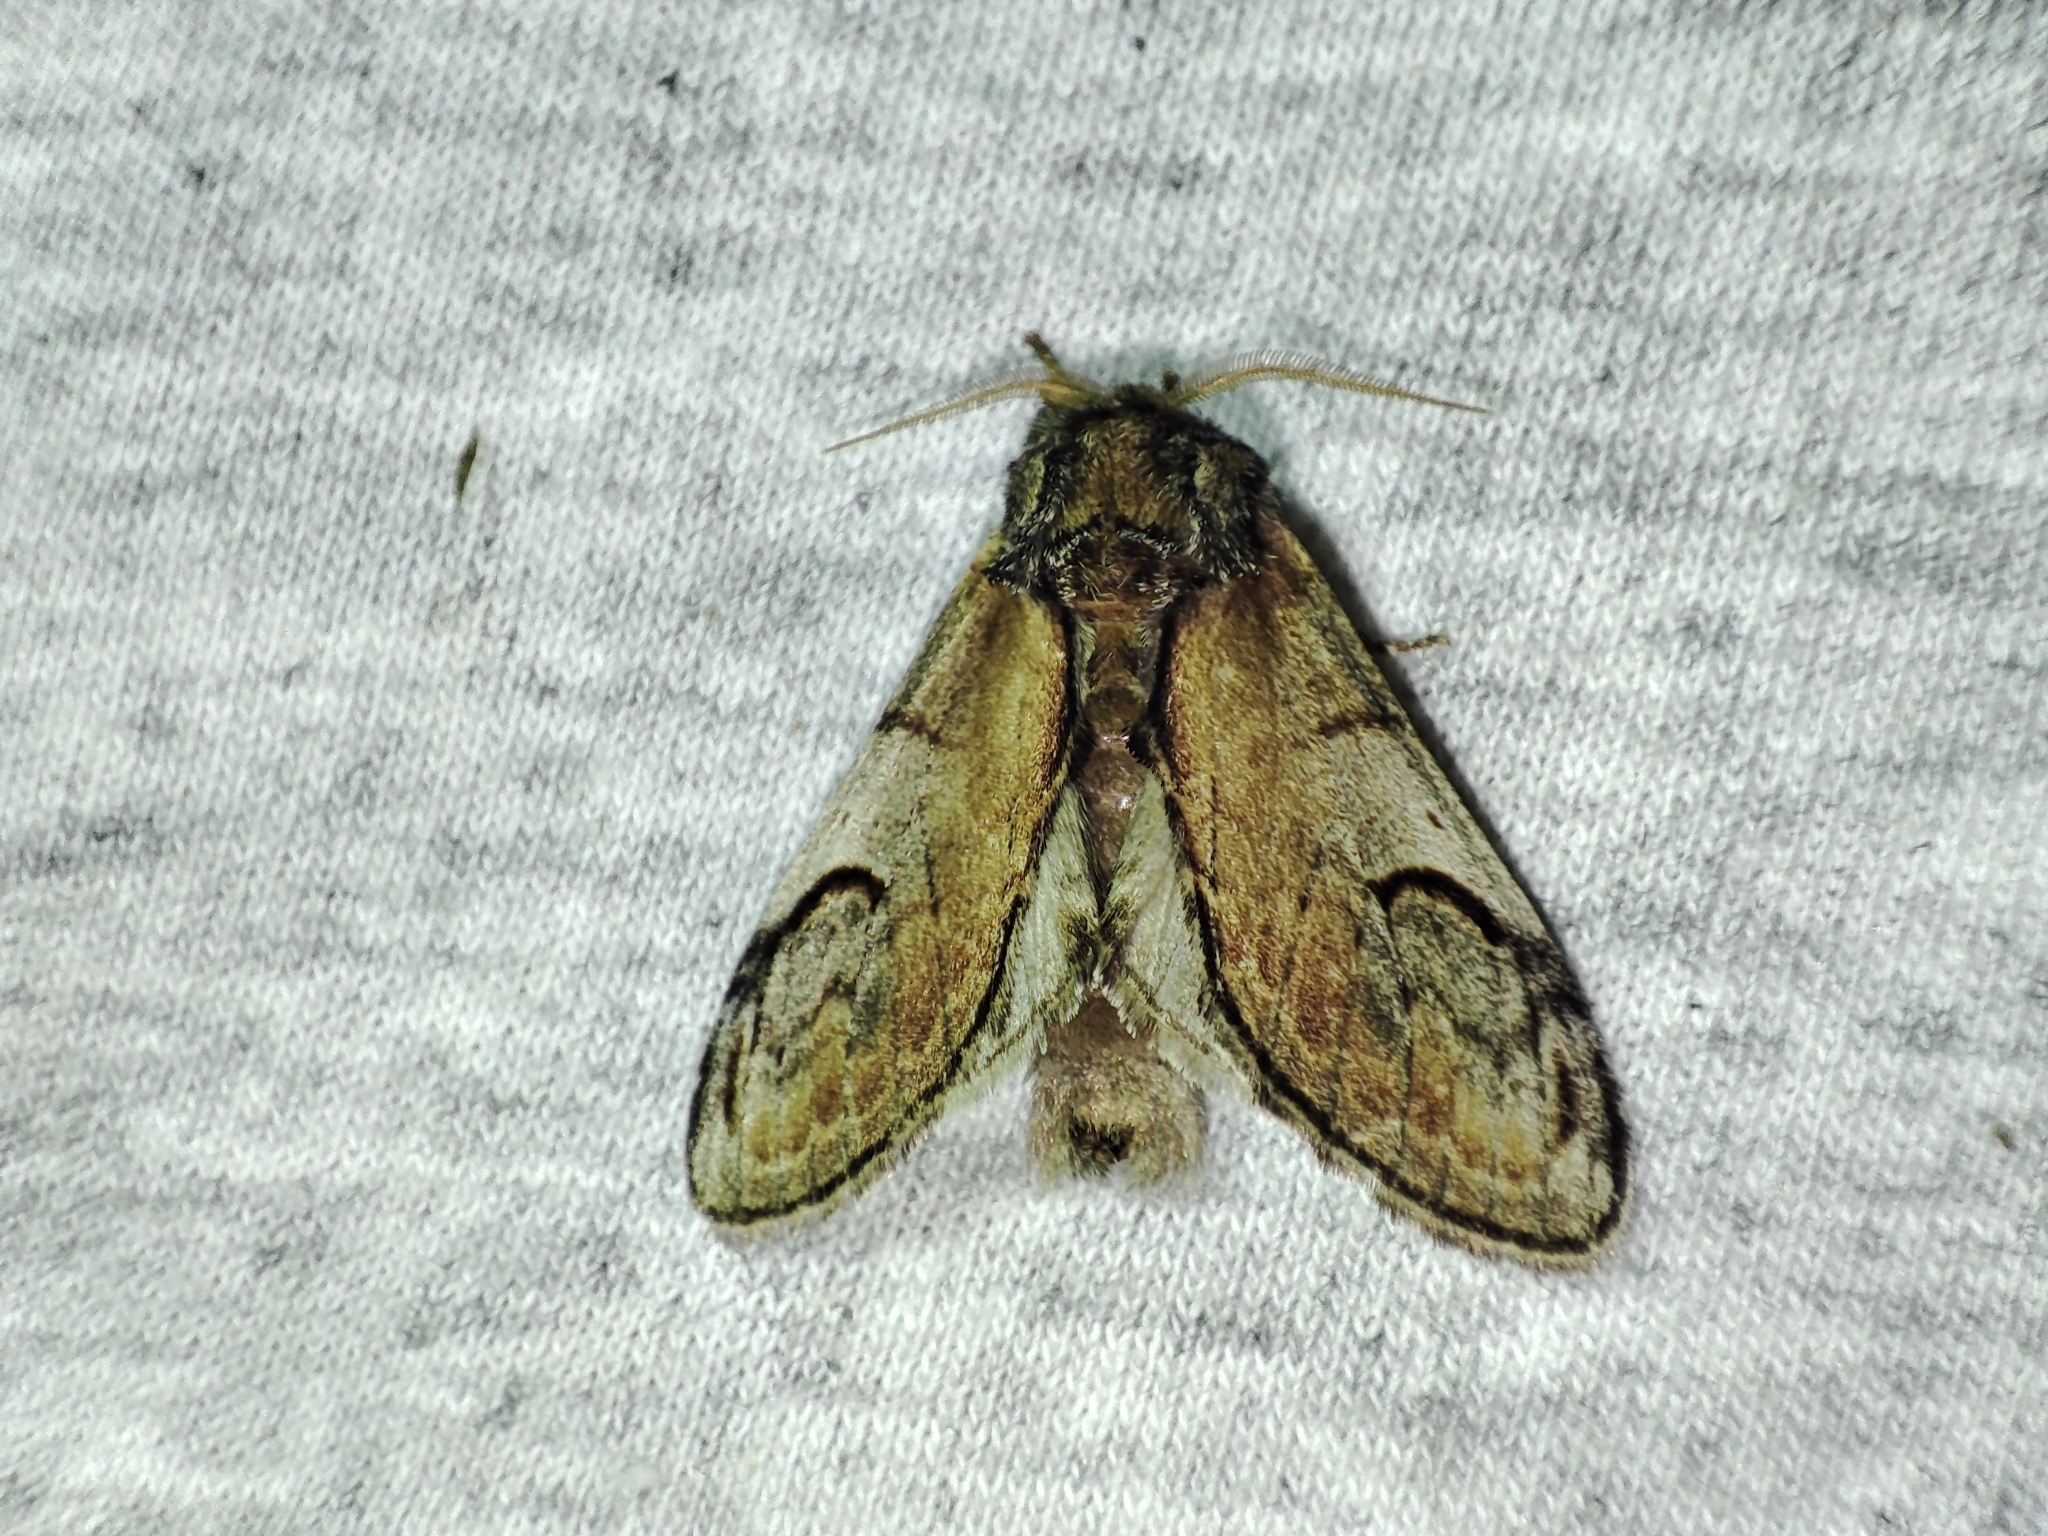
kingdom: Animalia
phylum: Arthropoda
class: Insecta
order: Lepidoptera
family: Notodontidae
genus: Notodonta
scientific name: Notodonta ziczac
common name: Pebble prominent
